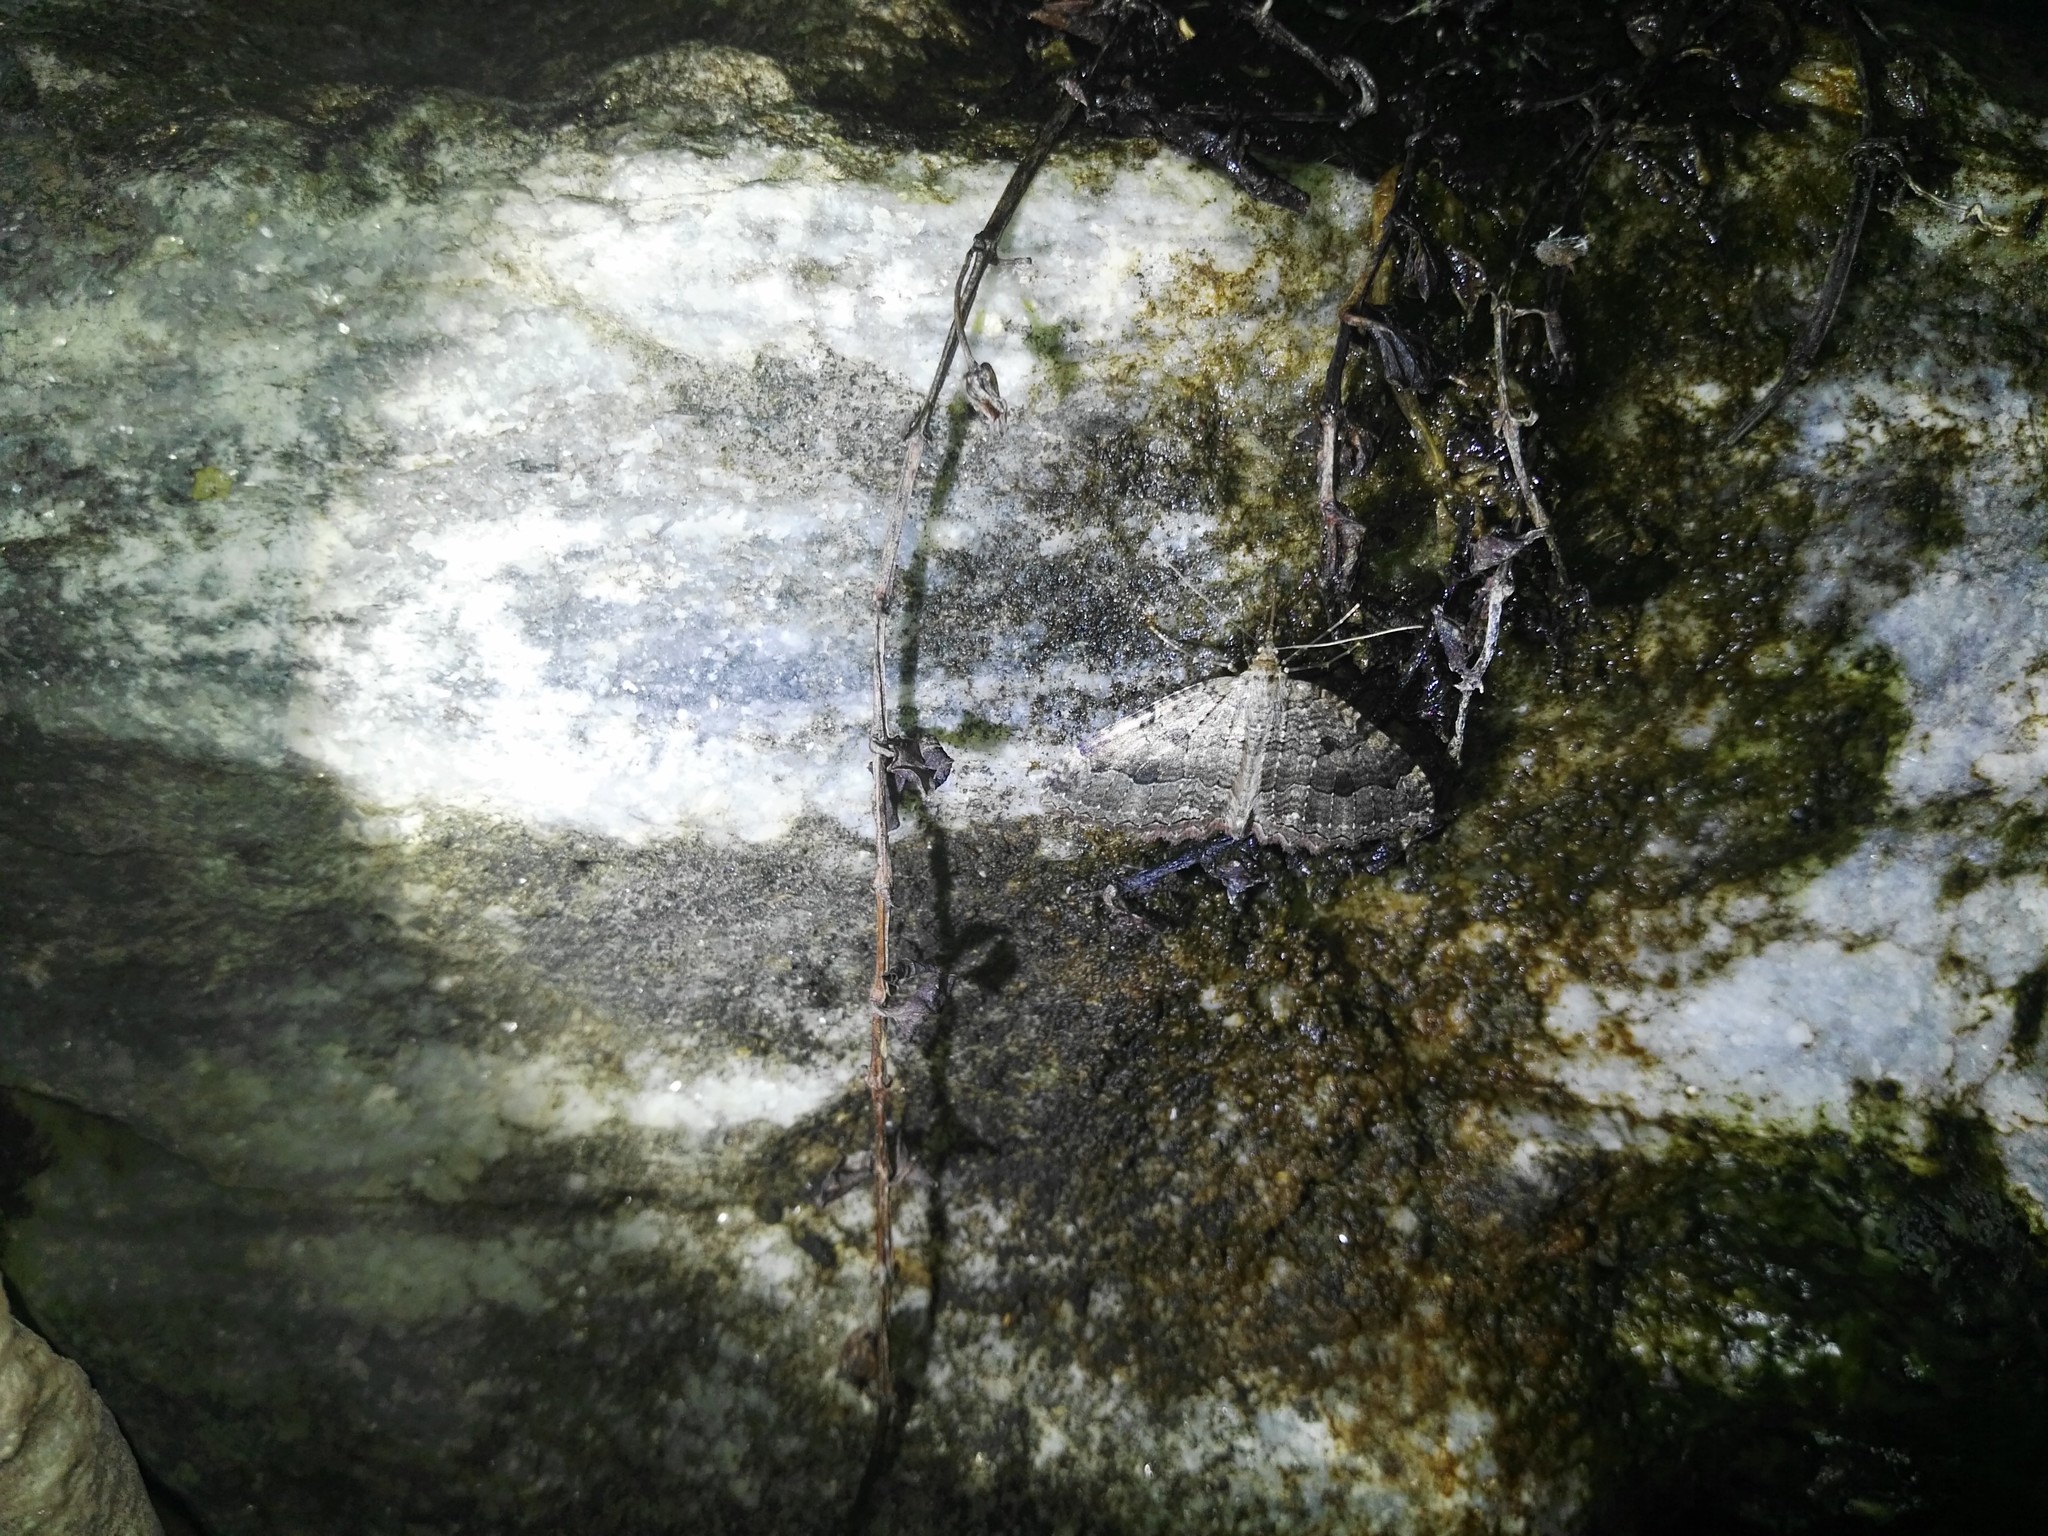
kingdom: Animalia
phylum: Arthropoda
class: Insecta
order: Lepidoptera
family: Geometridae
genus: Triphosa
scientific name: Triphosa dubitata
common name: Tissue
